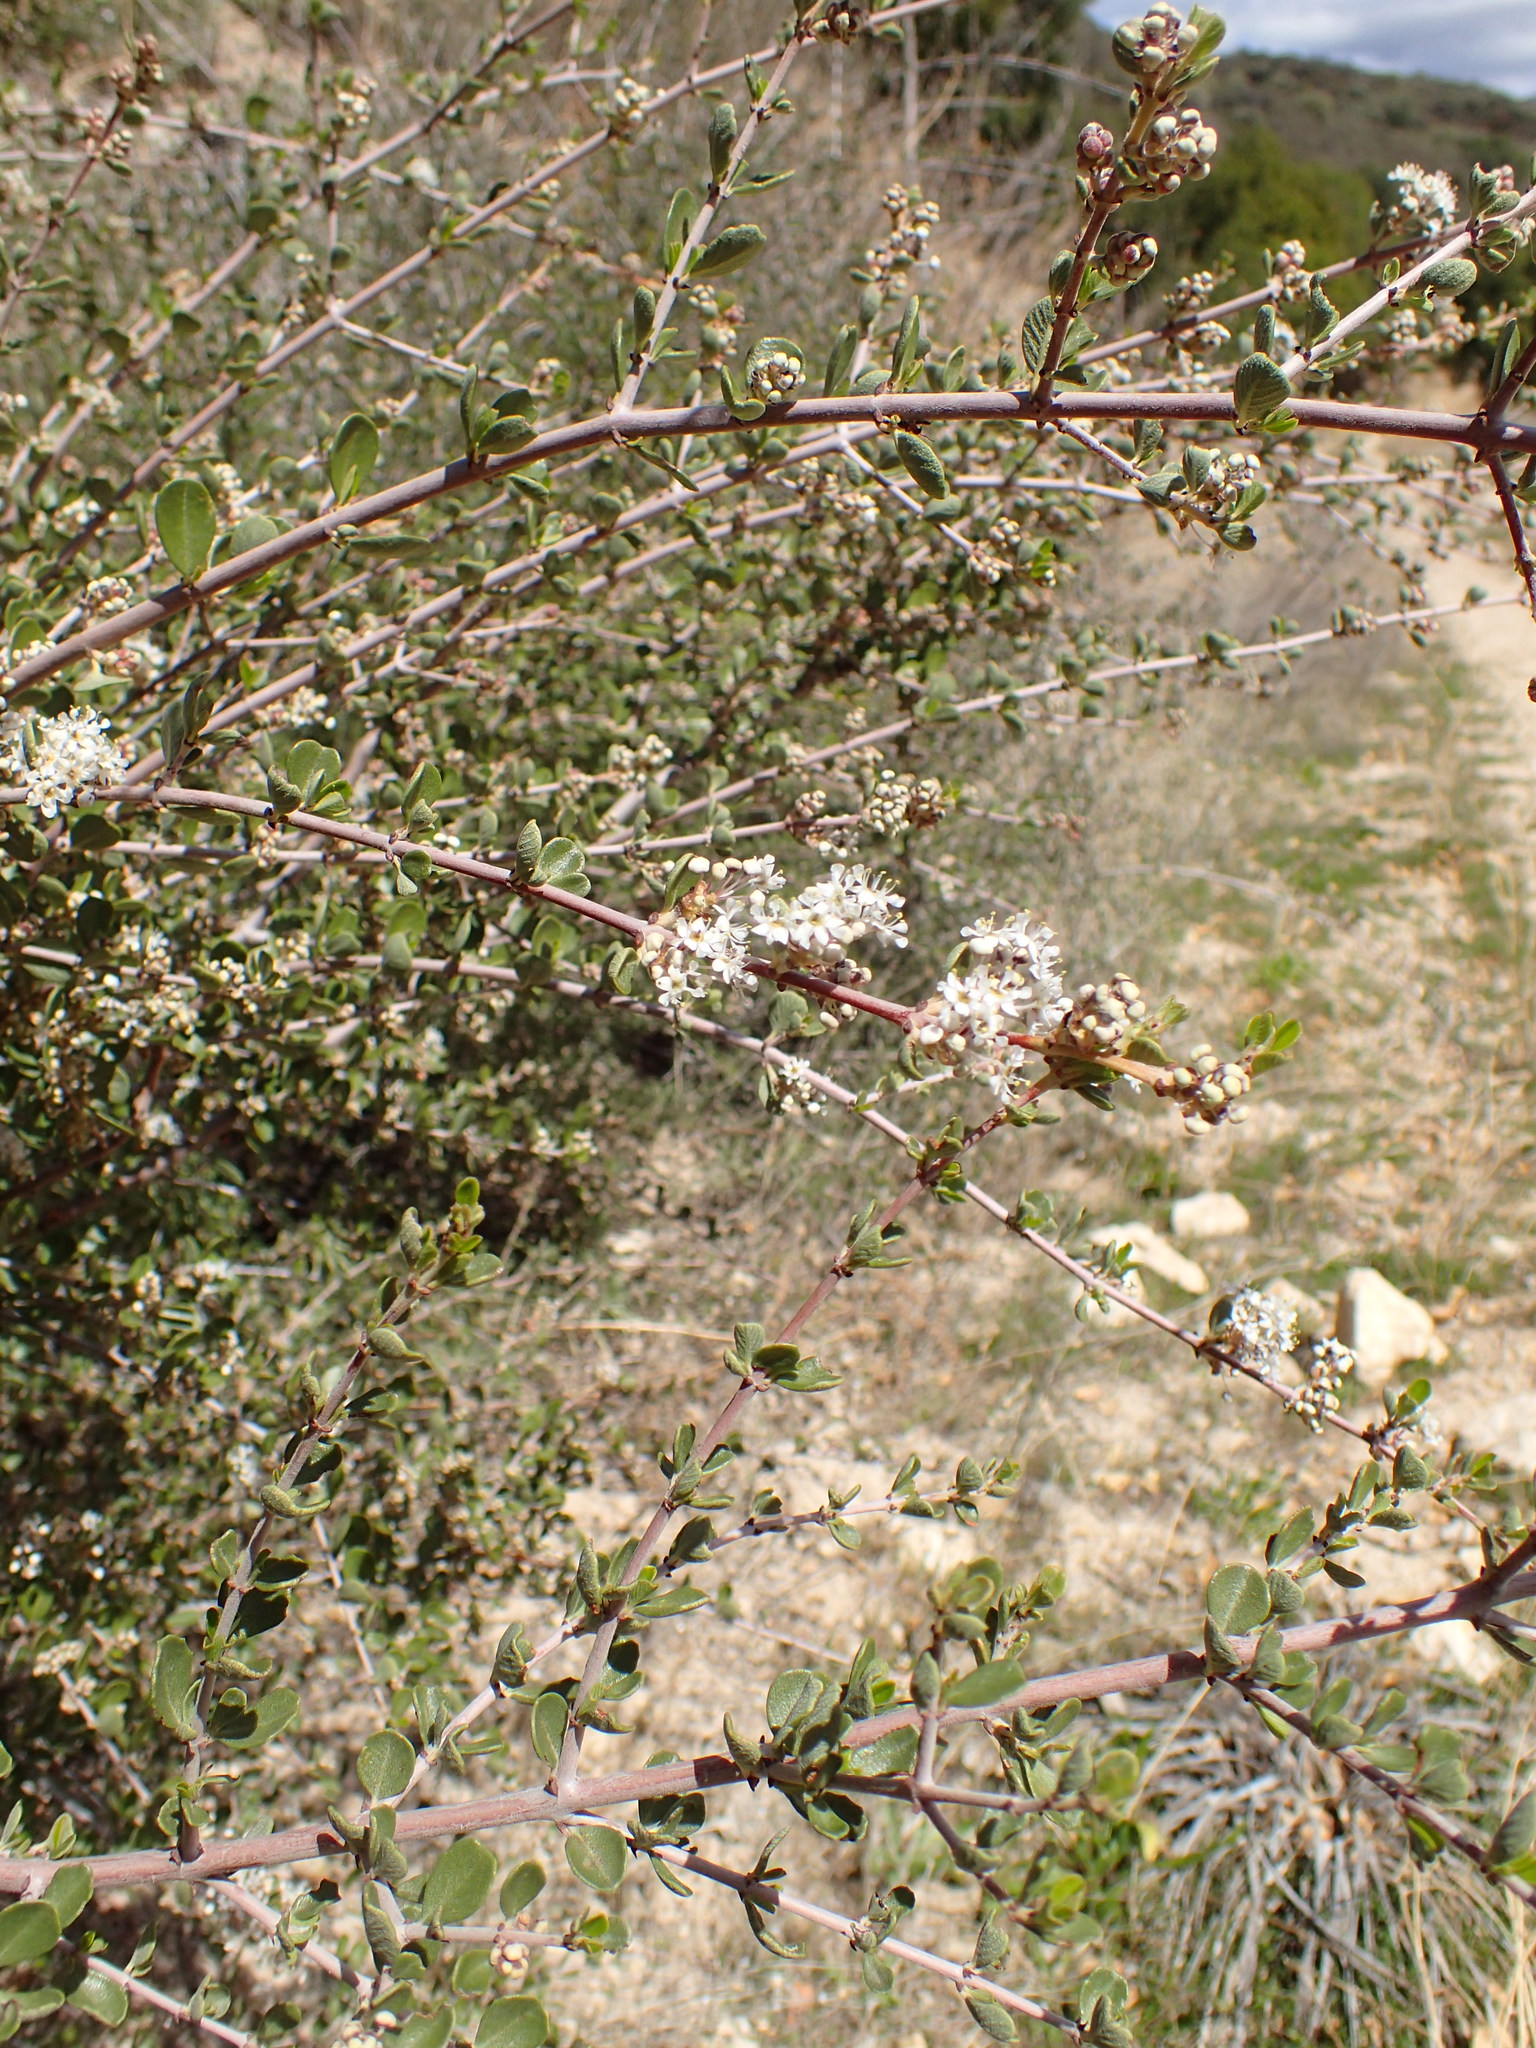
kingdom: Plantae
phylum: Tracheophyta
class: Magnoliopsida
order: Rosales
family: Rhamnaceae
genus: Ceanothus
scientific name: Ceanothus cuneatus
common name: Cuneate ceanothus
